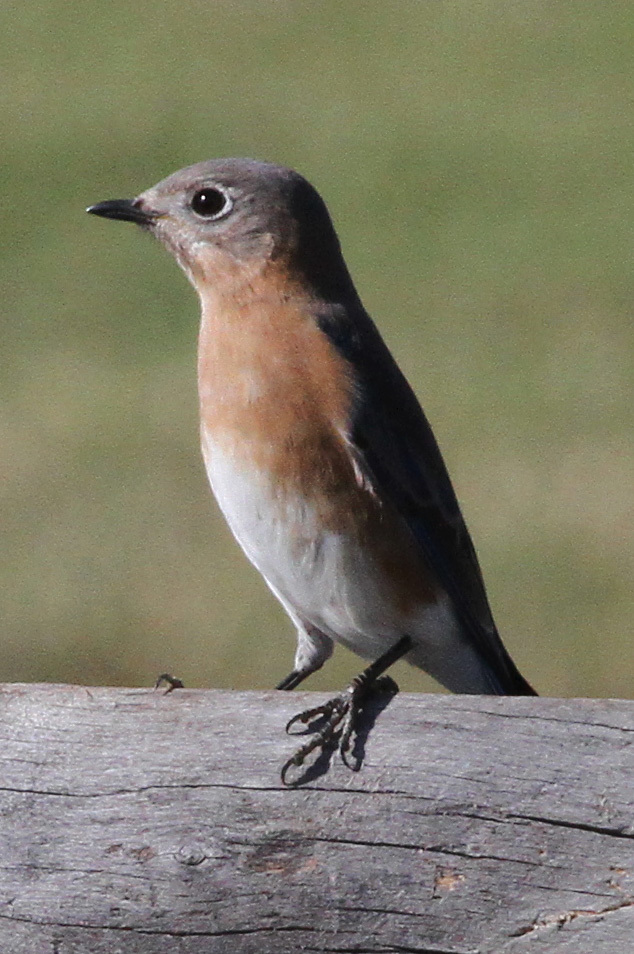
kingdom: Animalia
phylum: Chordata
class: Aves
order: Passeriformes
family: Turdidae
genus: Sialia
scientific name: Sialia sialis
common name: Eastern bluebird
